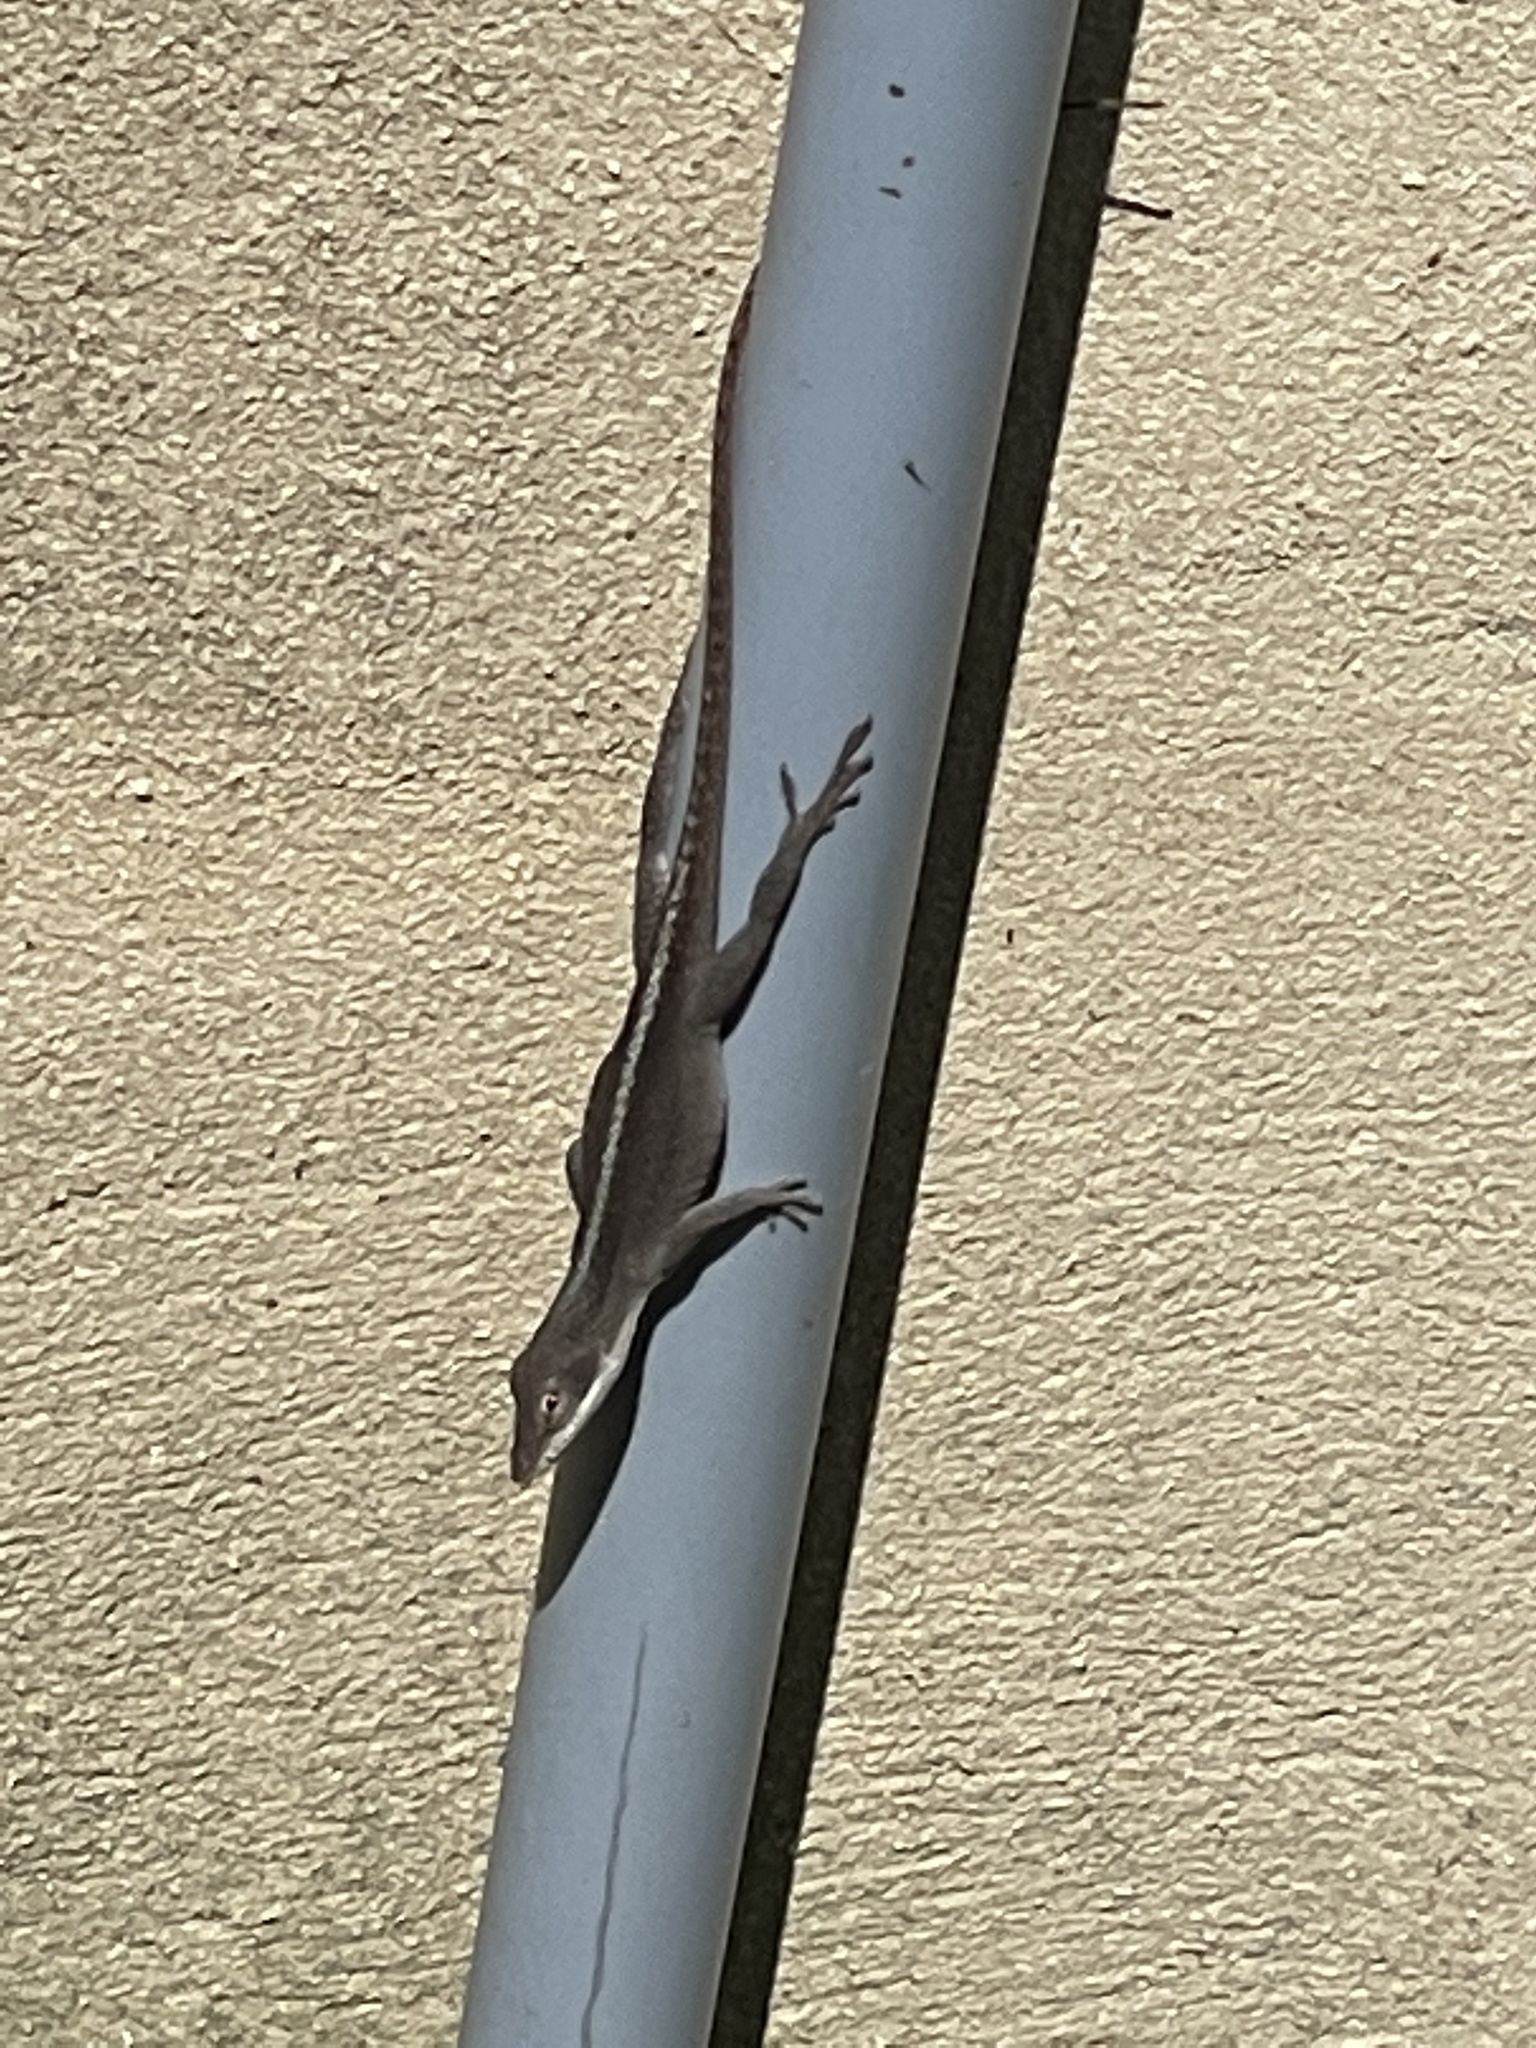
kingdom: Animalia
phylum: Chordata
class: Squamata
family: Dactyloidae
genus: Anolis
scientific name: Anolis carolinensis
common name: Green anole
